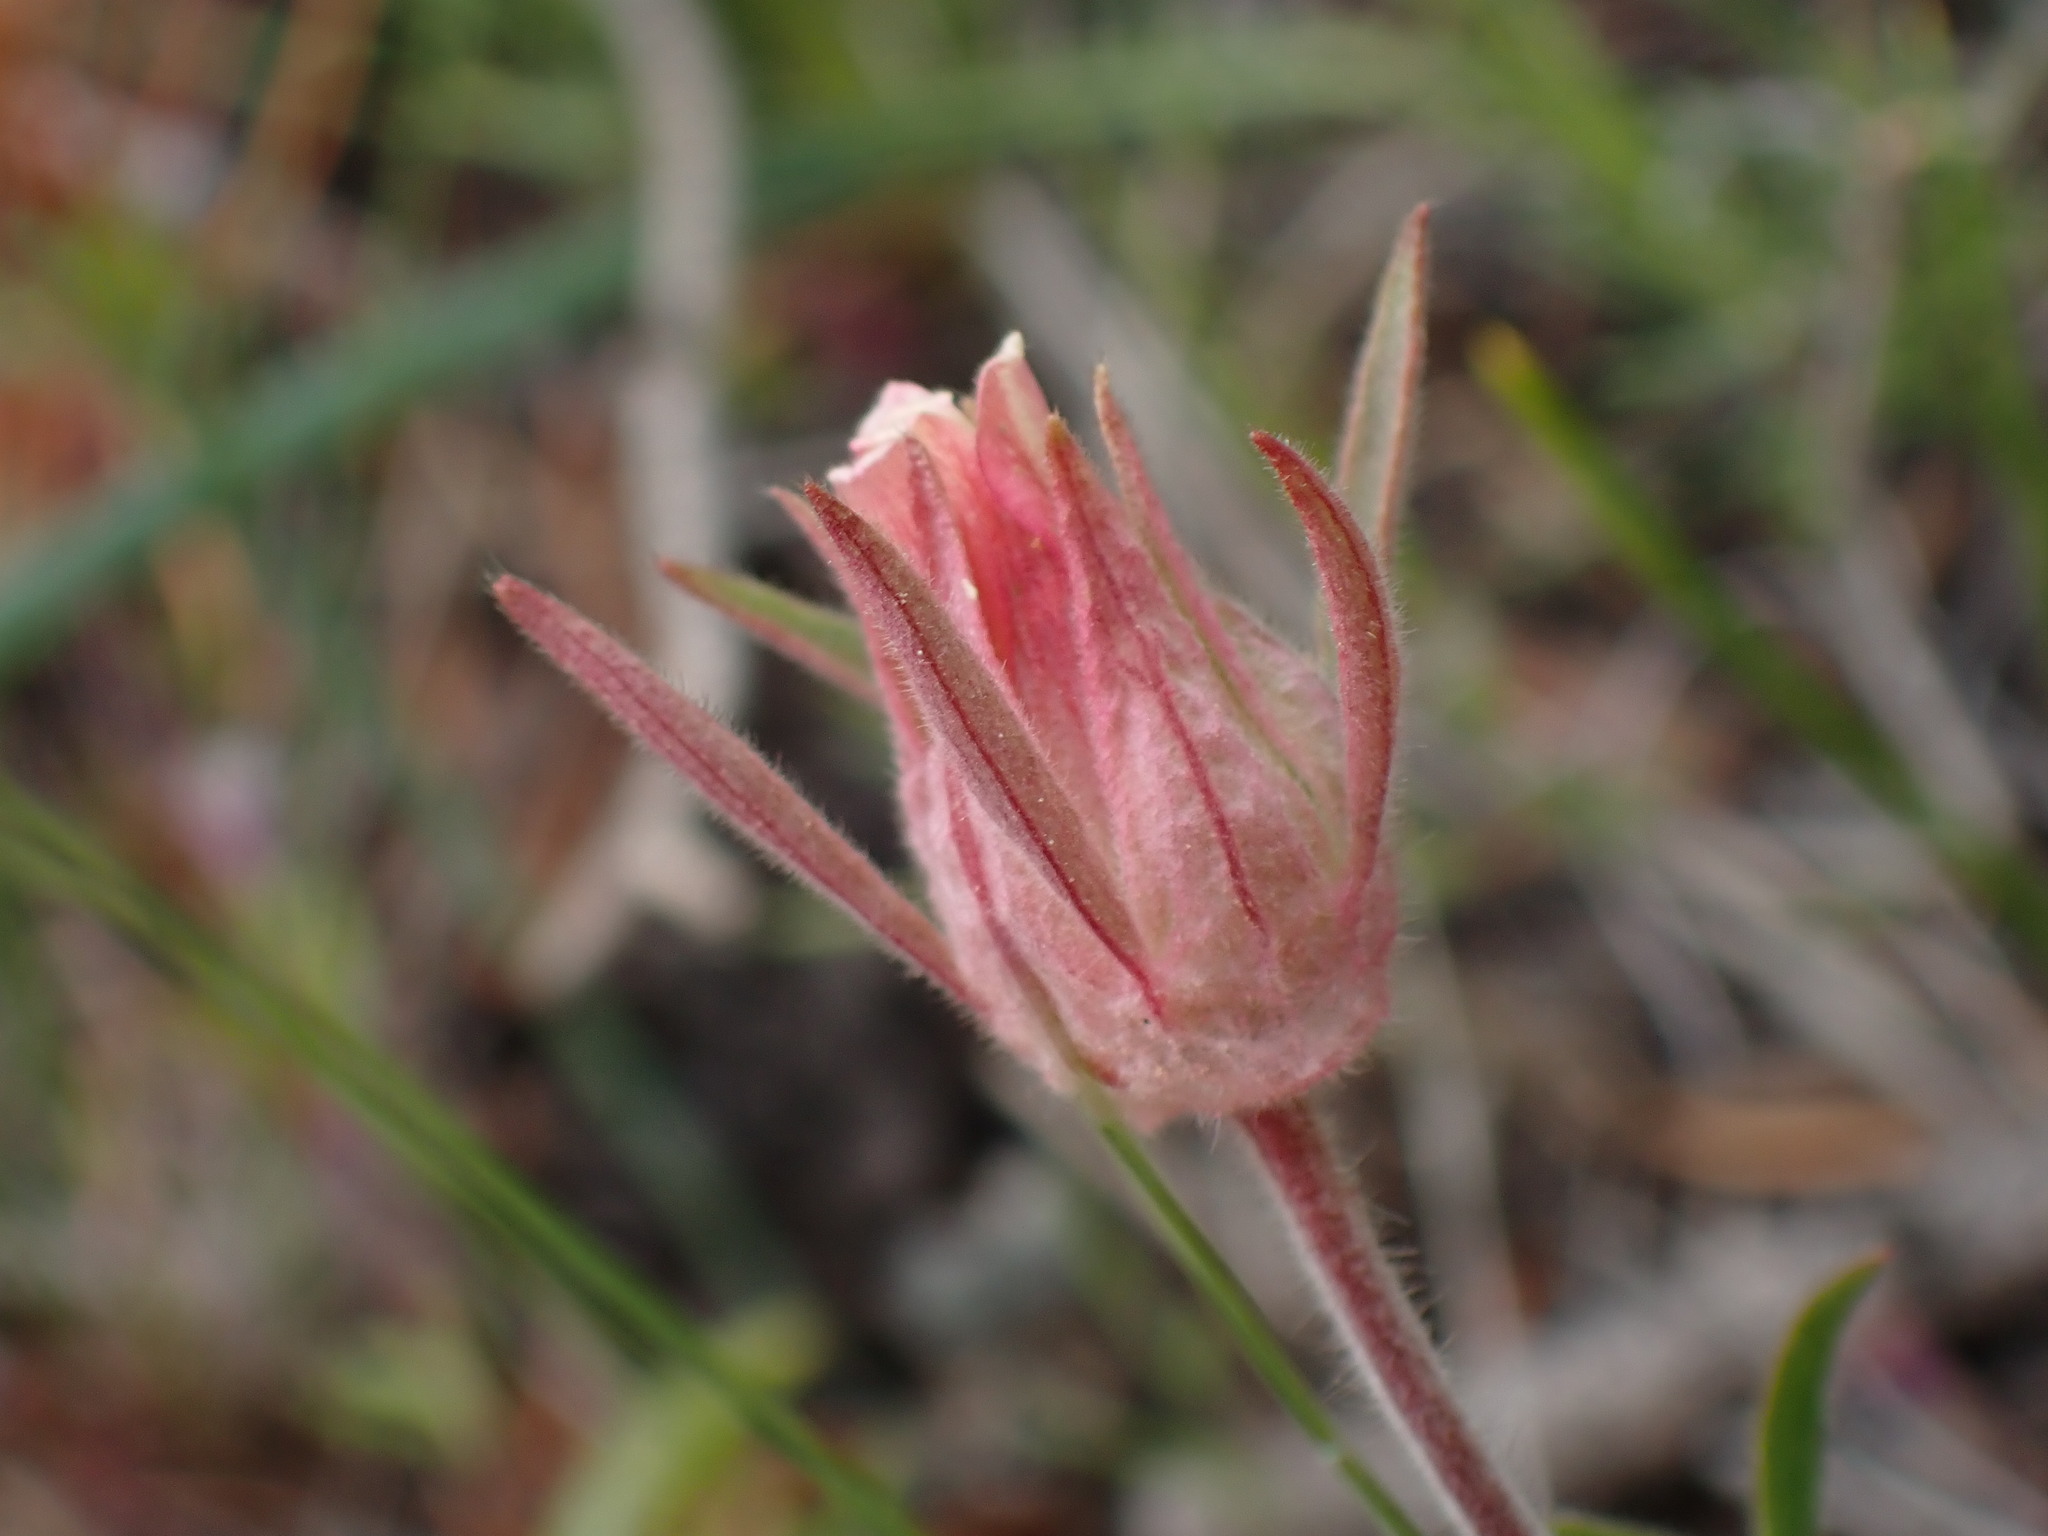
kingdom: Plantae
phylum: Tracheophyta
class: Magnoliopsida
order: Rosales
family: Rosaceae
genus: Geum
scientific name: Geum triflorum
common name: Old man's whiskers
